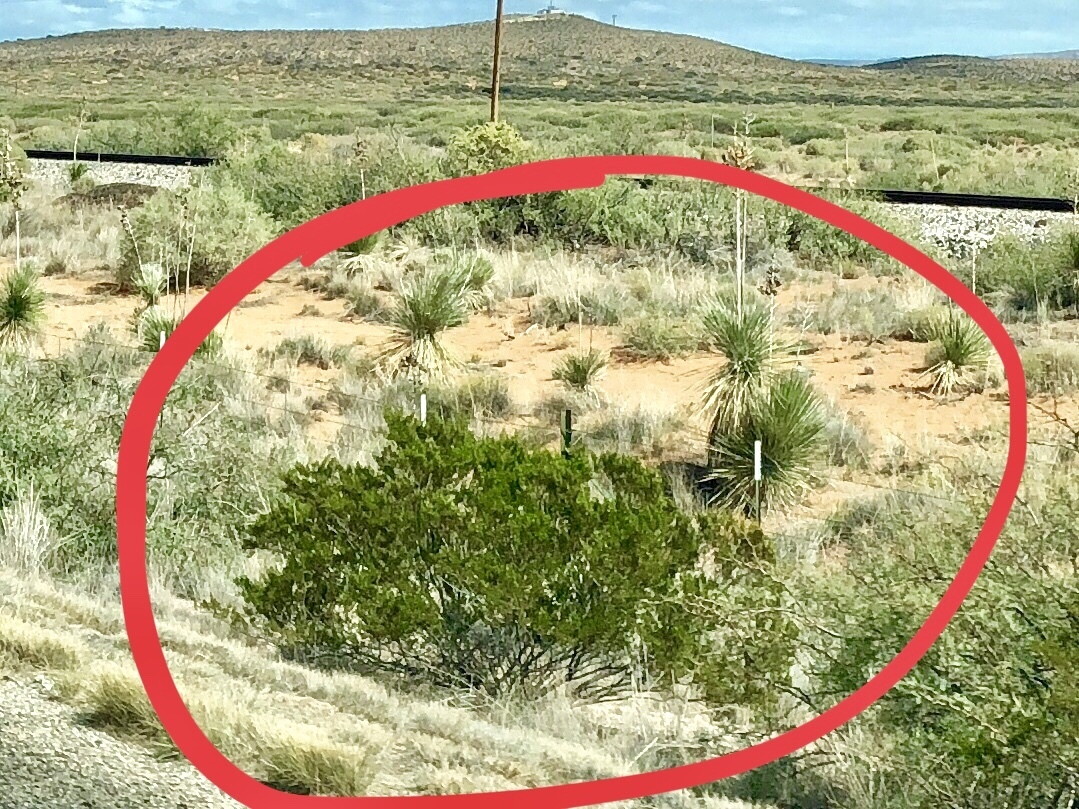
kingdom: Plantae
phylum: Tracheophyta
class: Magnoliopsida
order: Zygophyllales
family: Zygophyllaceae
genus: Larrea
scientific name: Larrea tridentata
